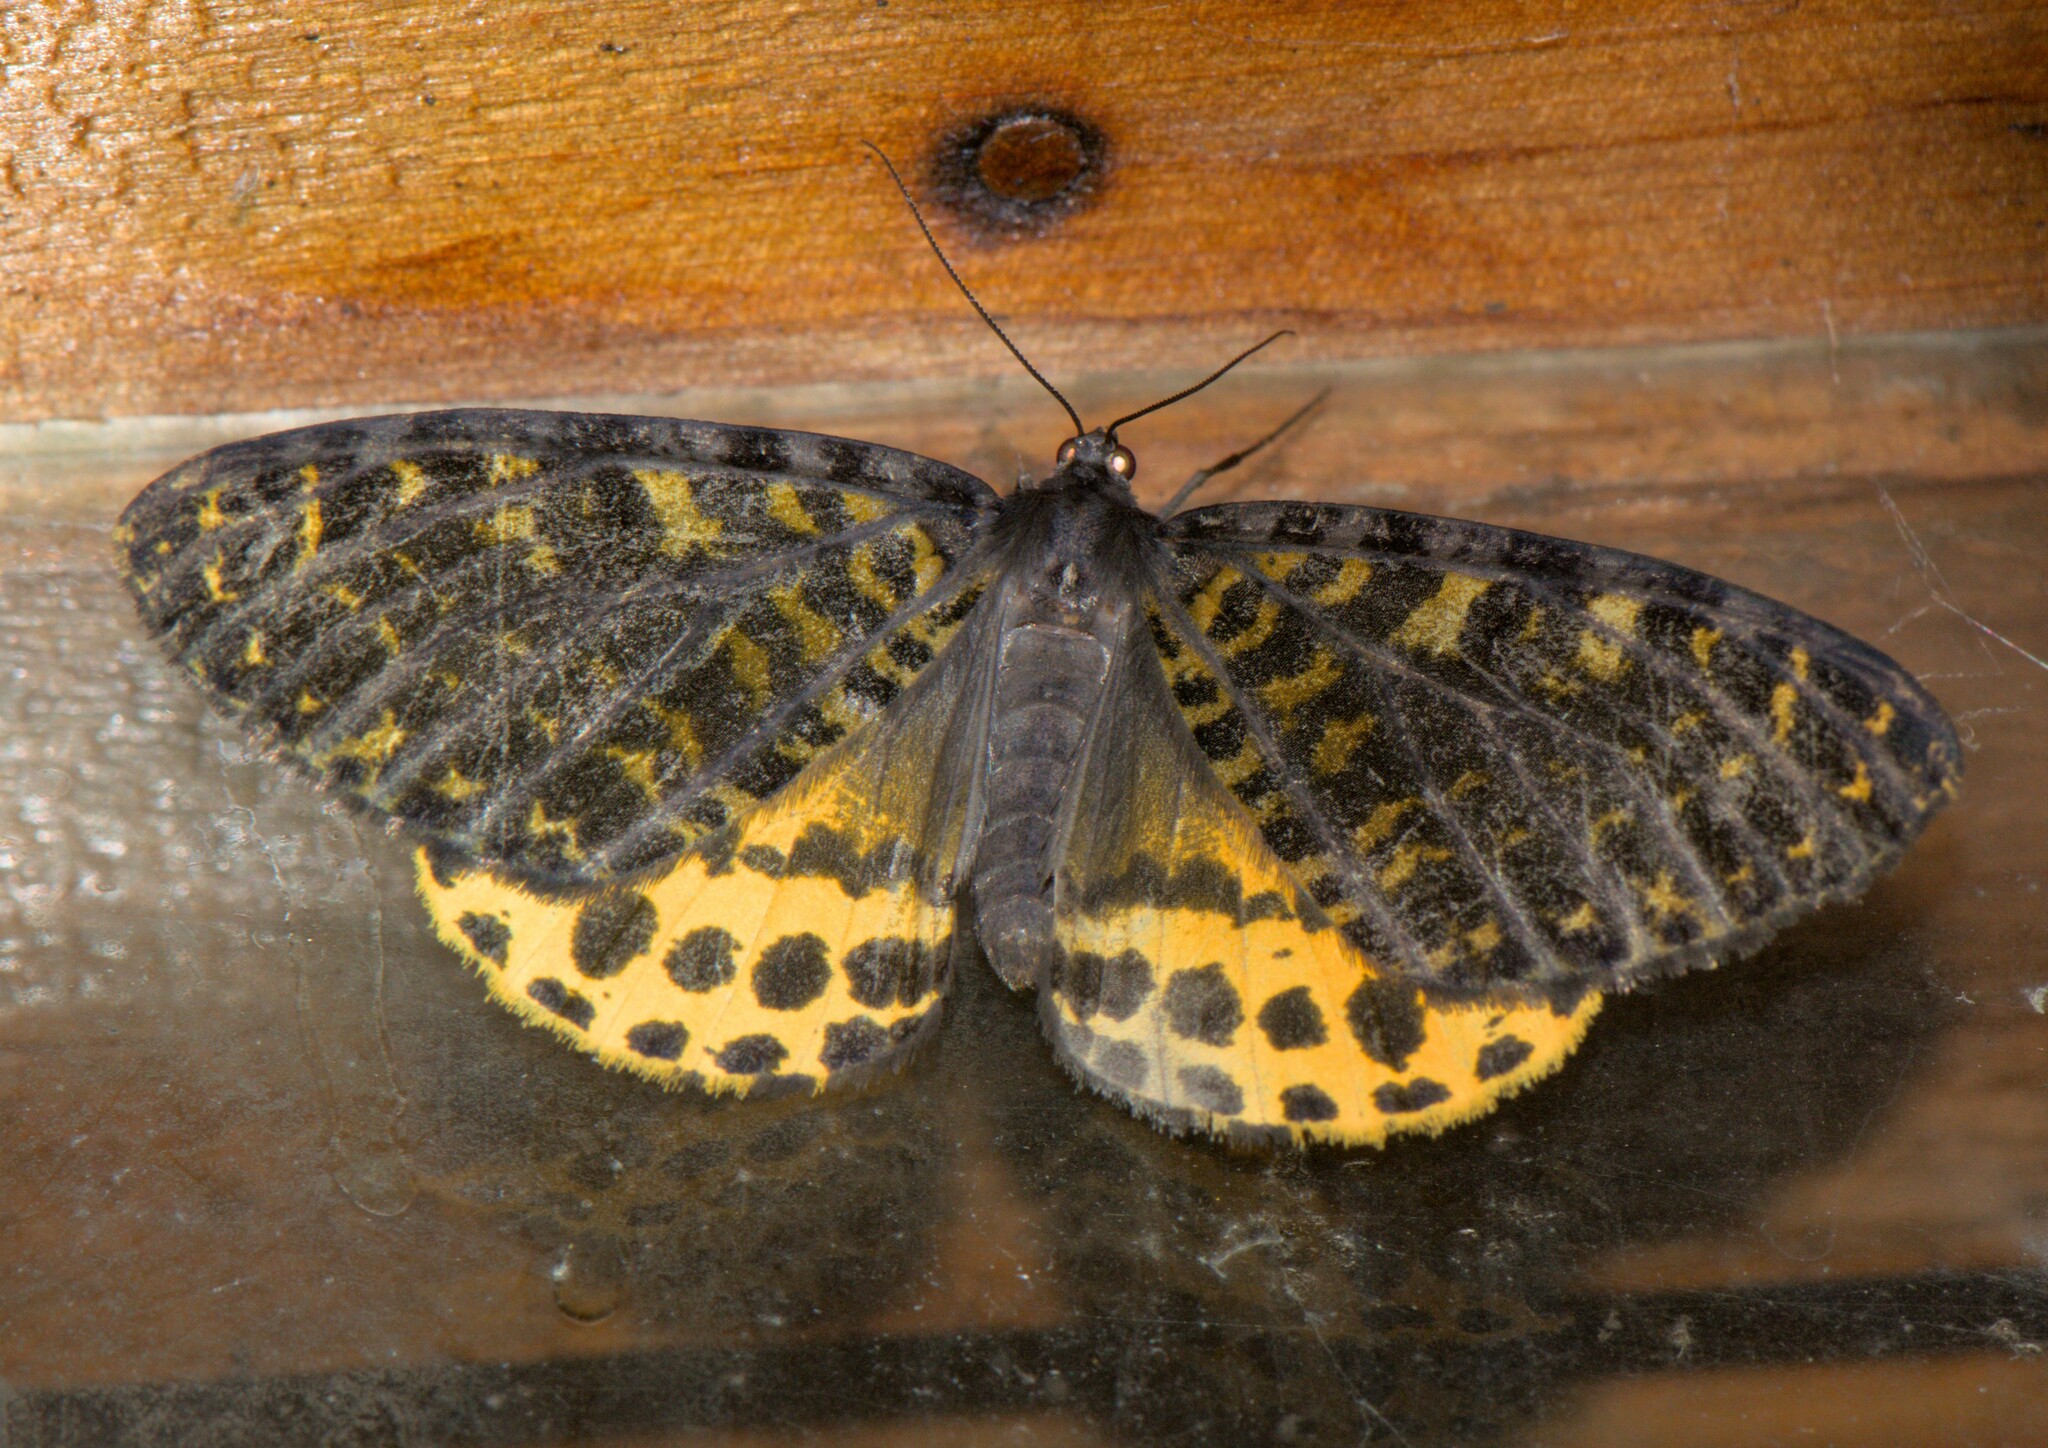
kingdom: Animalia
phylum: Arthropoda
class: Insecta
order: Lepidoptera
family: Geometridae
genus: Arichanna
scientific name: Arichanna flavinigra
